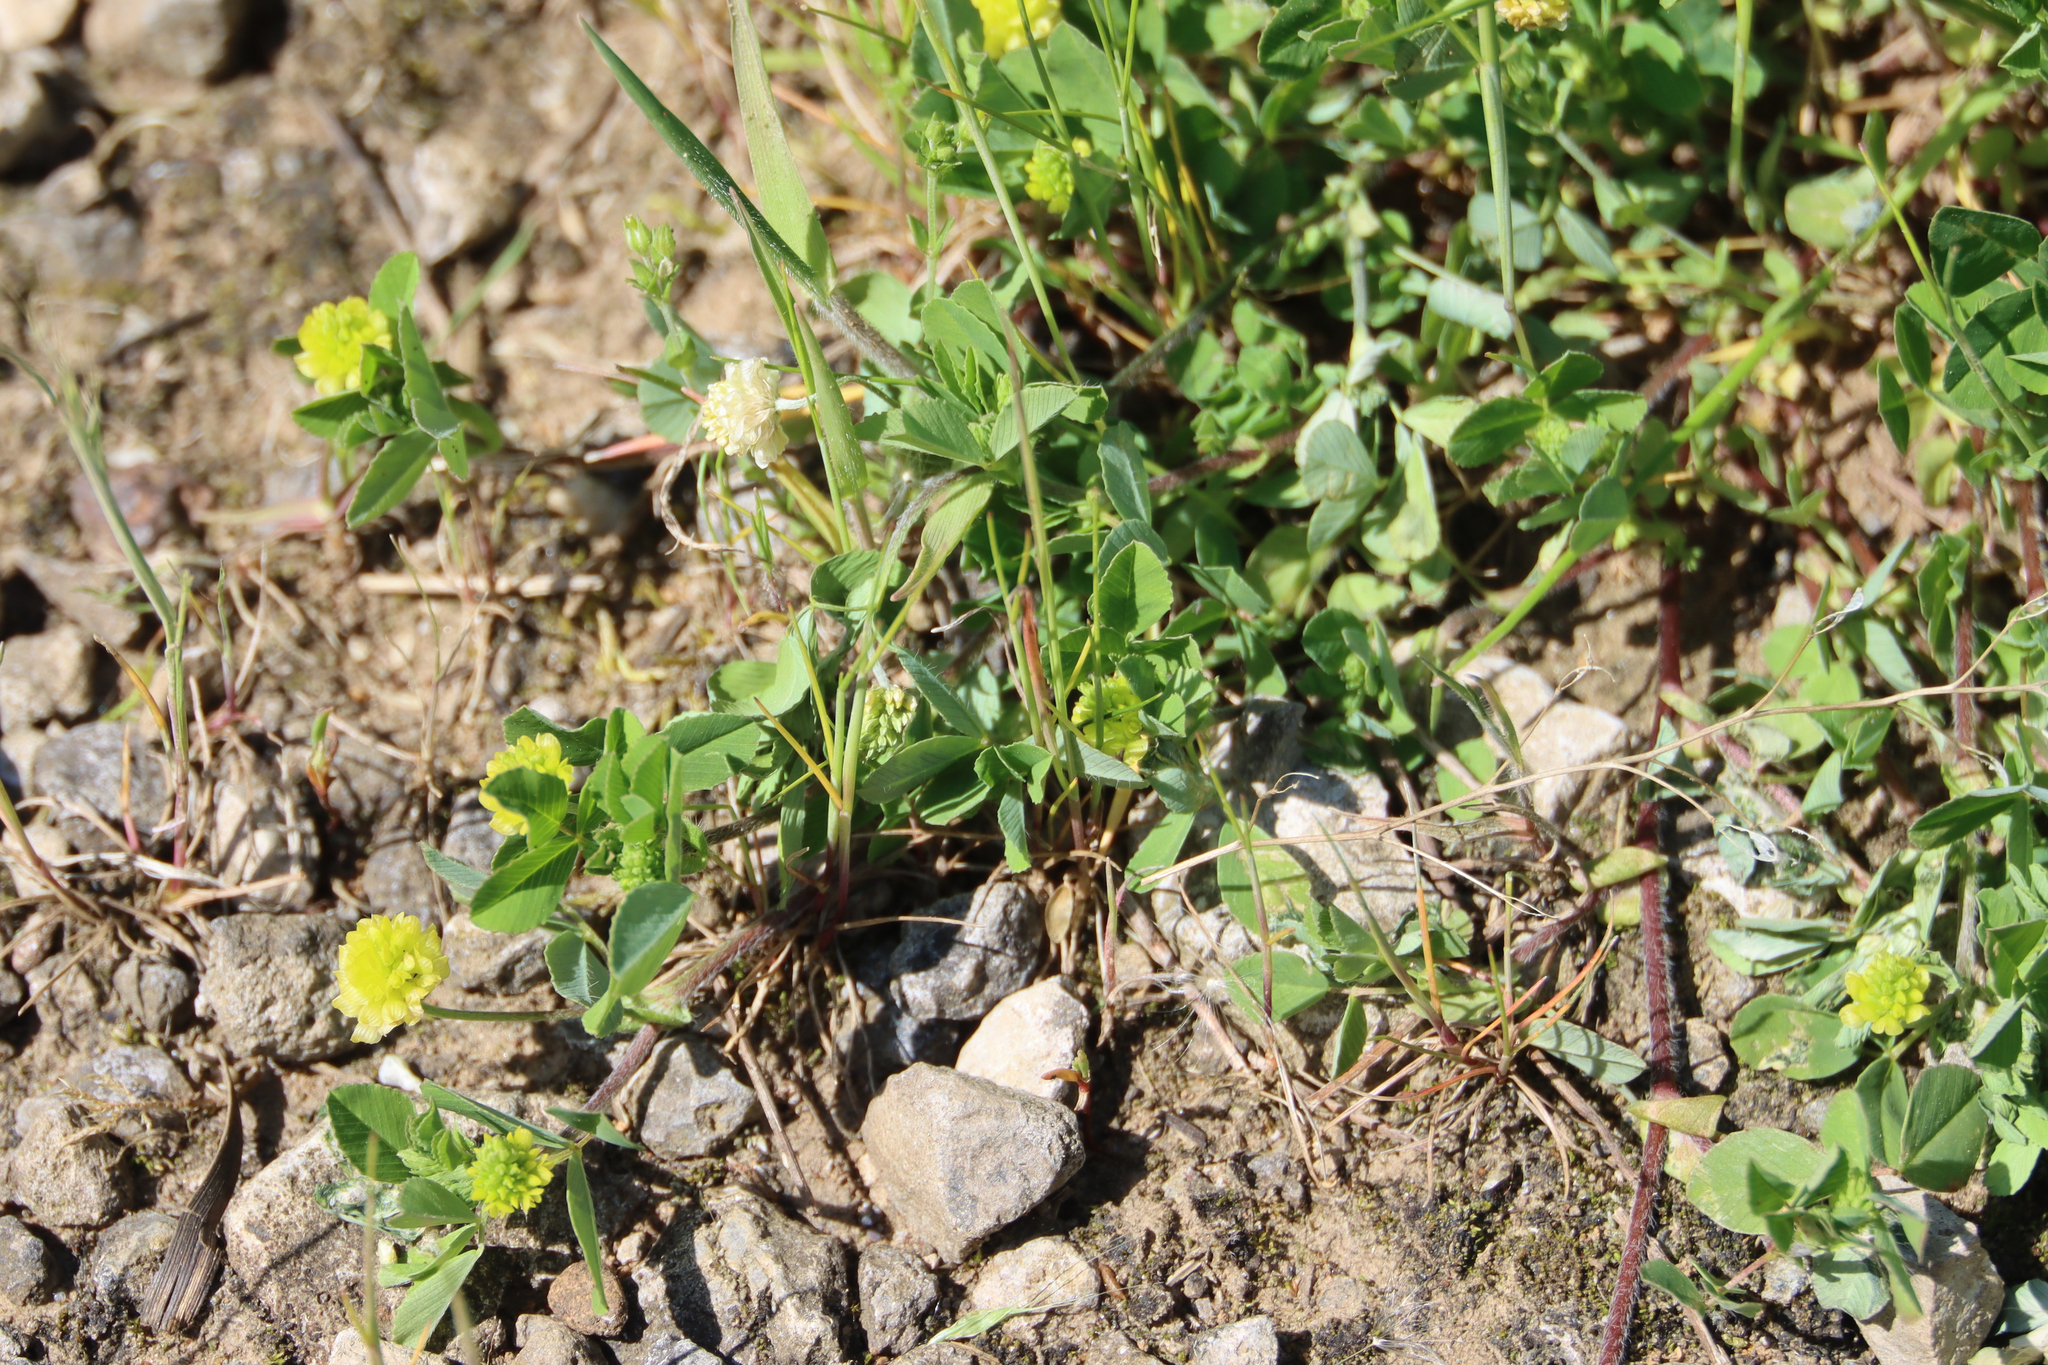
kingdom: Plantae
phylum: Tracheophyta
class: Magnoliopsida
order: Fabales
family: Fabaceae
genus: Trifolium
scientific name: Trifolium campestre
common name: Field clover
